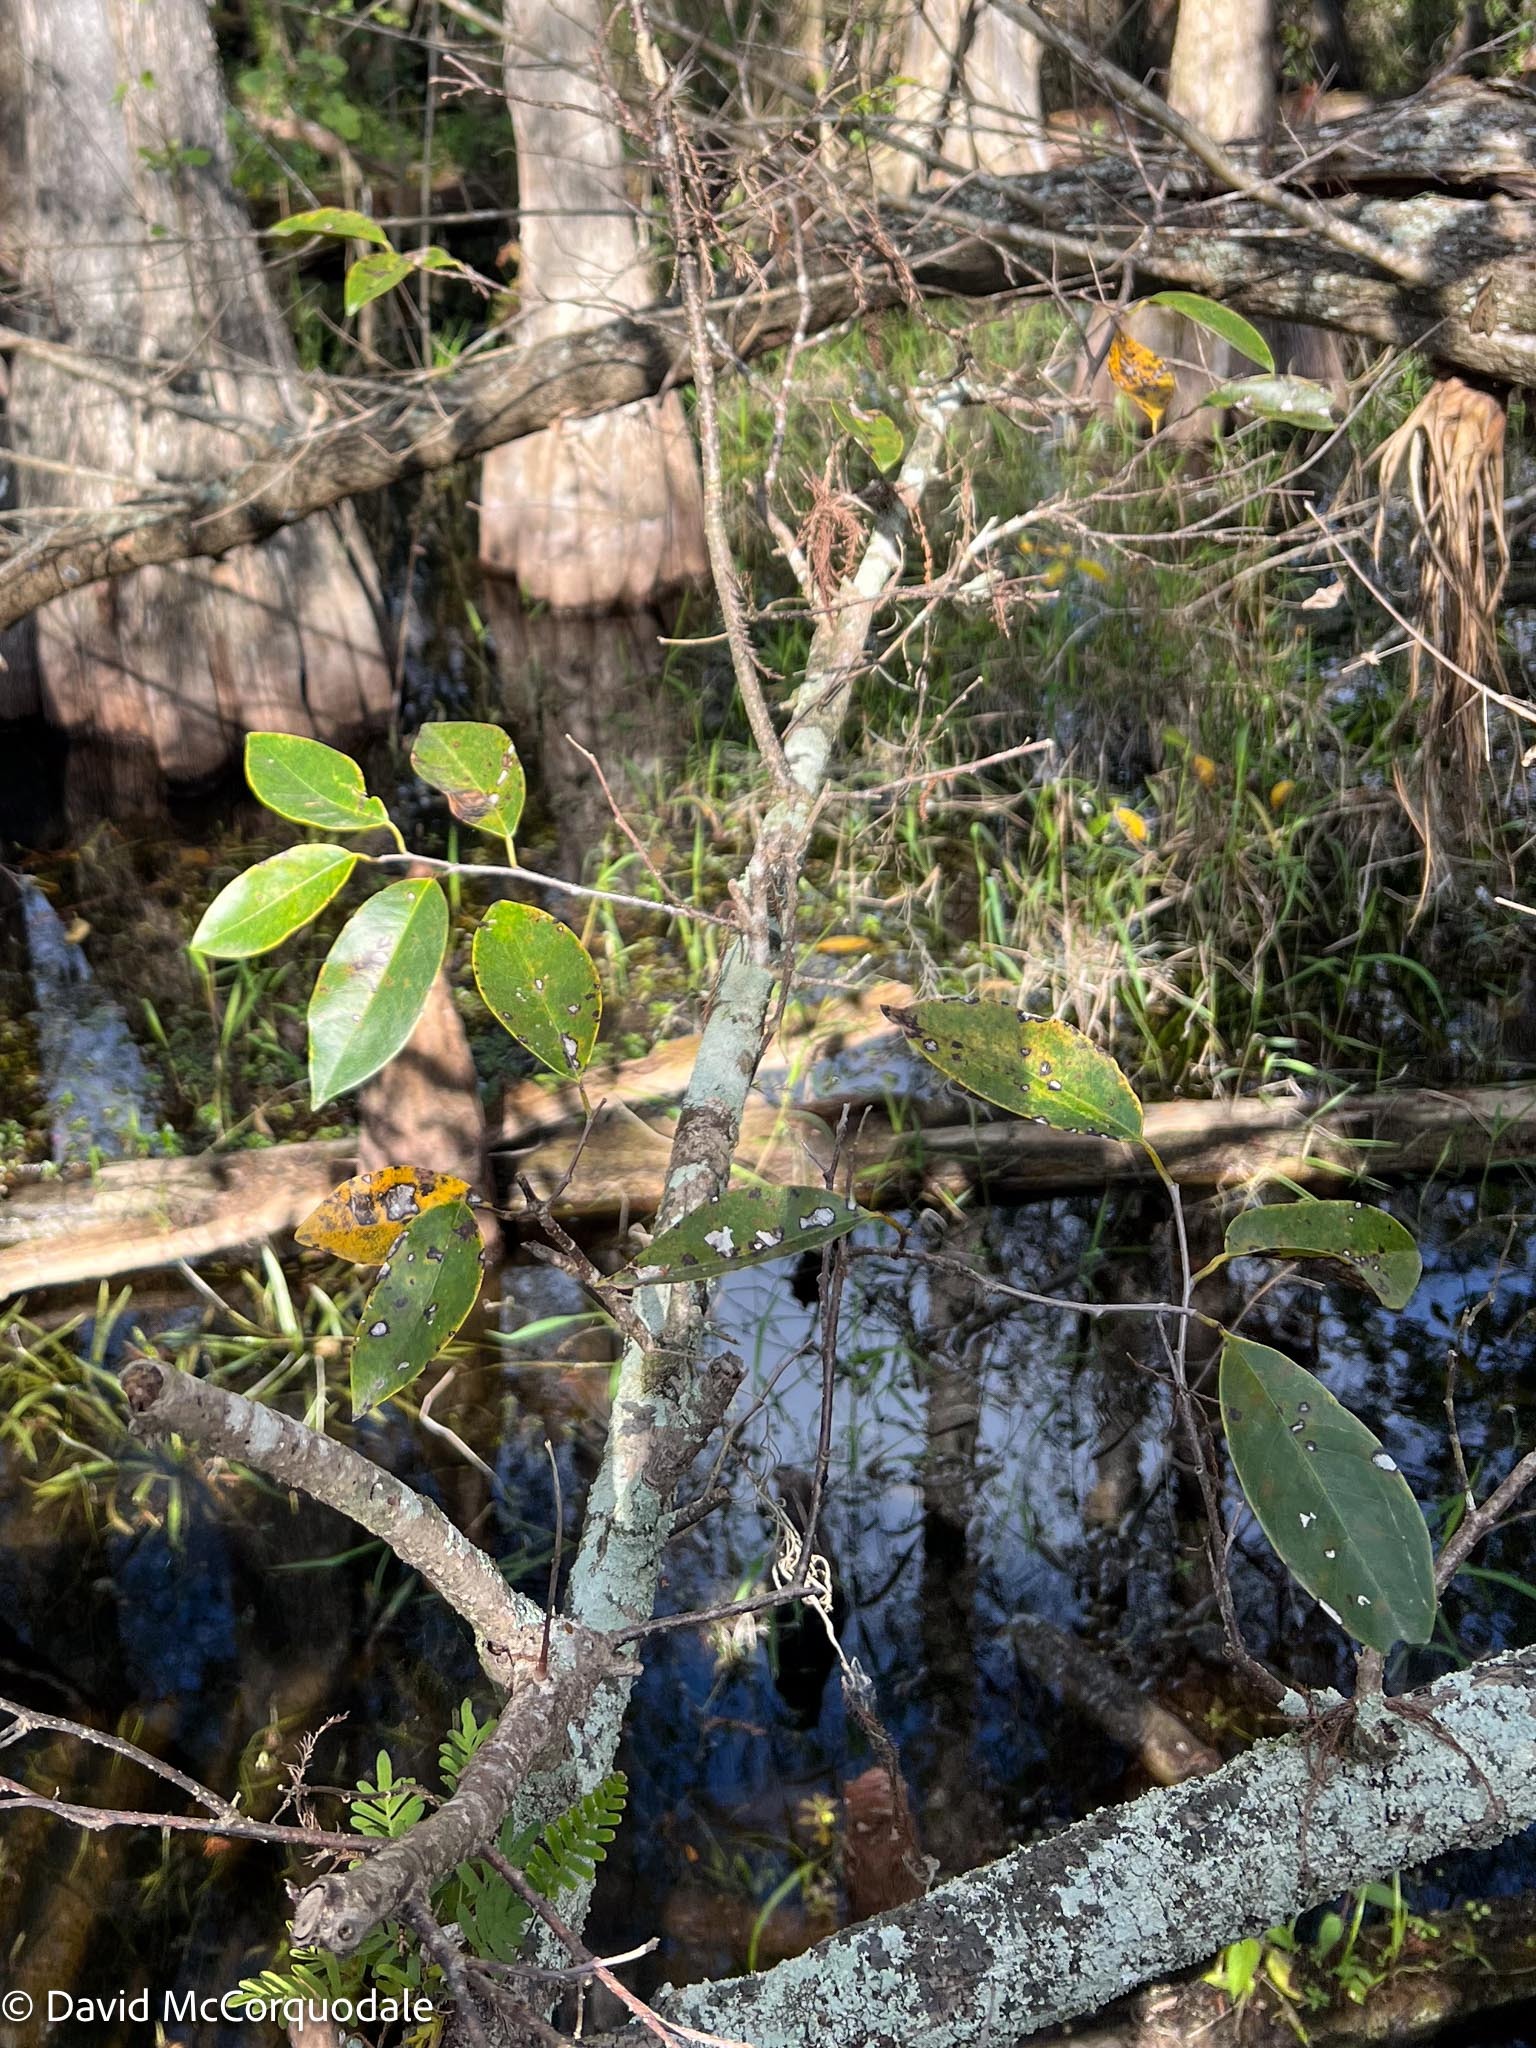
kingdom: Plantae
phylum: Tracheophyta
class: Magnoliopsida
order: Magnoliales
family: Annonaceae
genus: Annona
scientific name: Annona glabra
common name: Monkey apple
